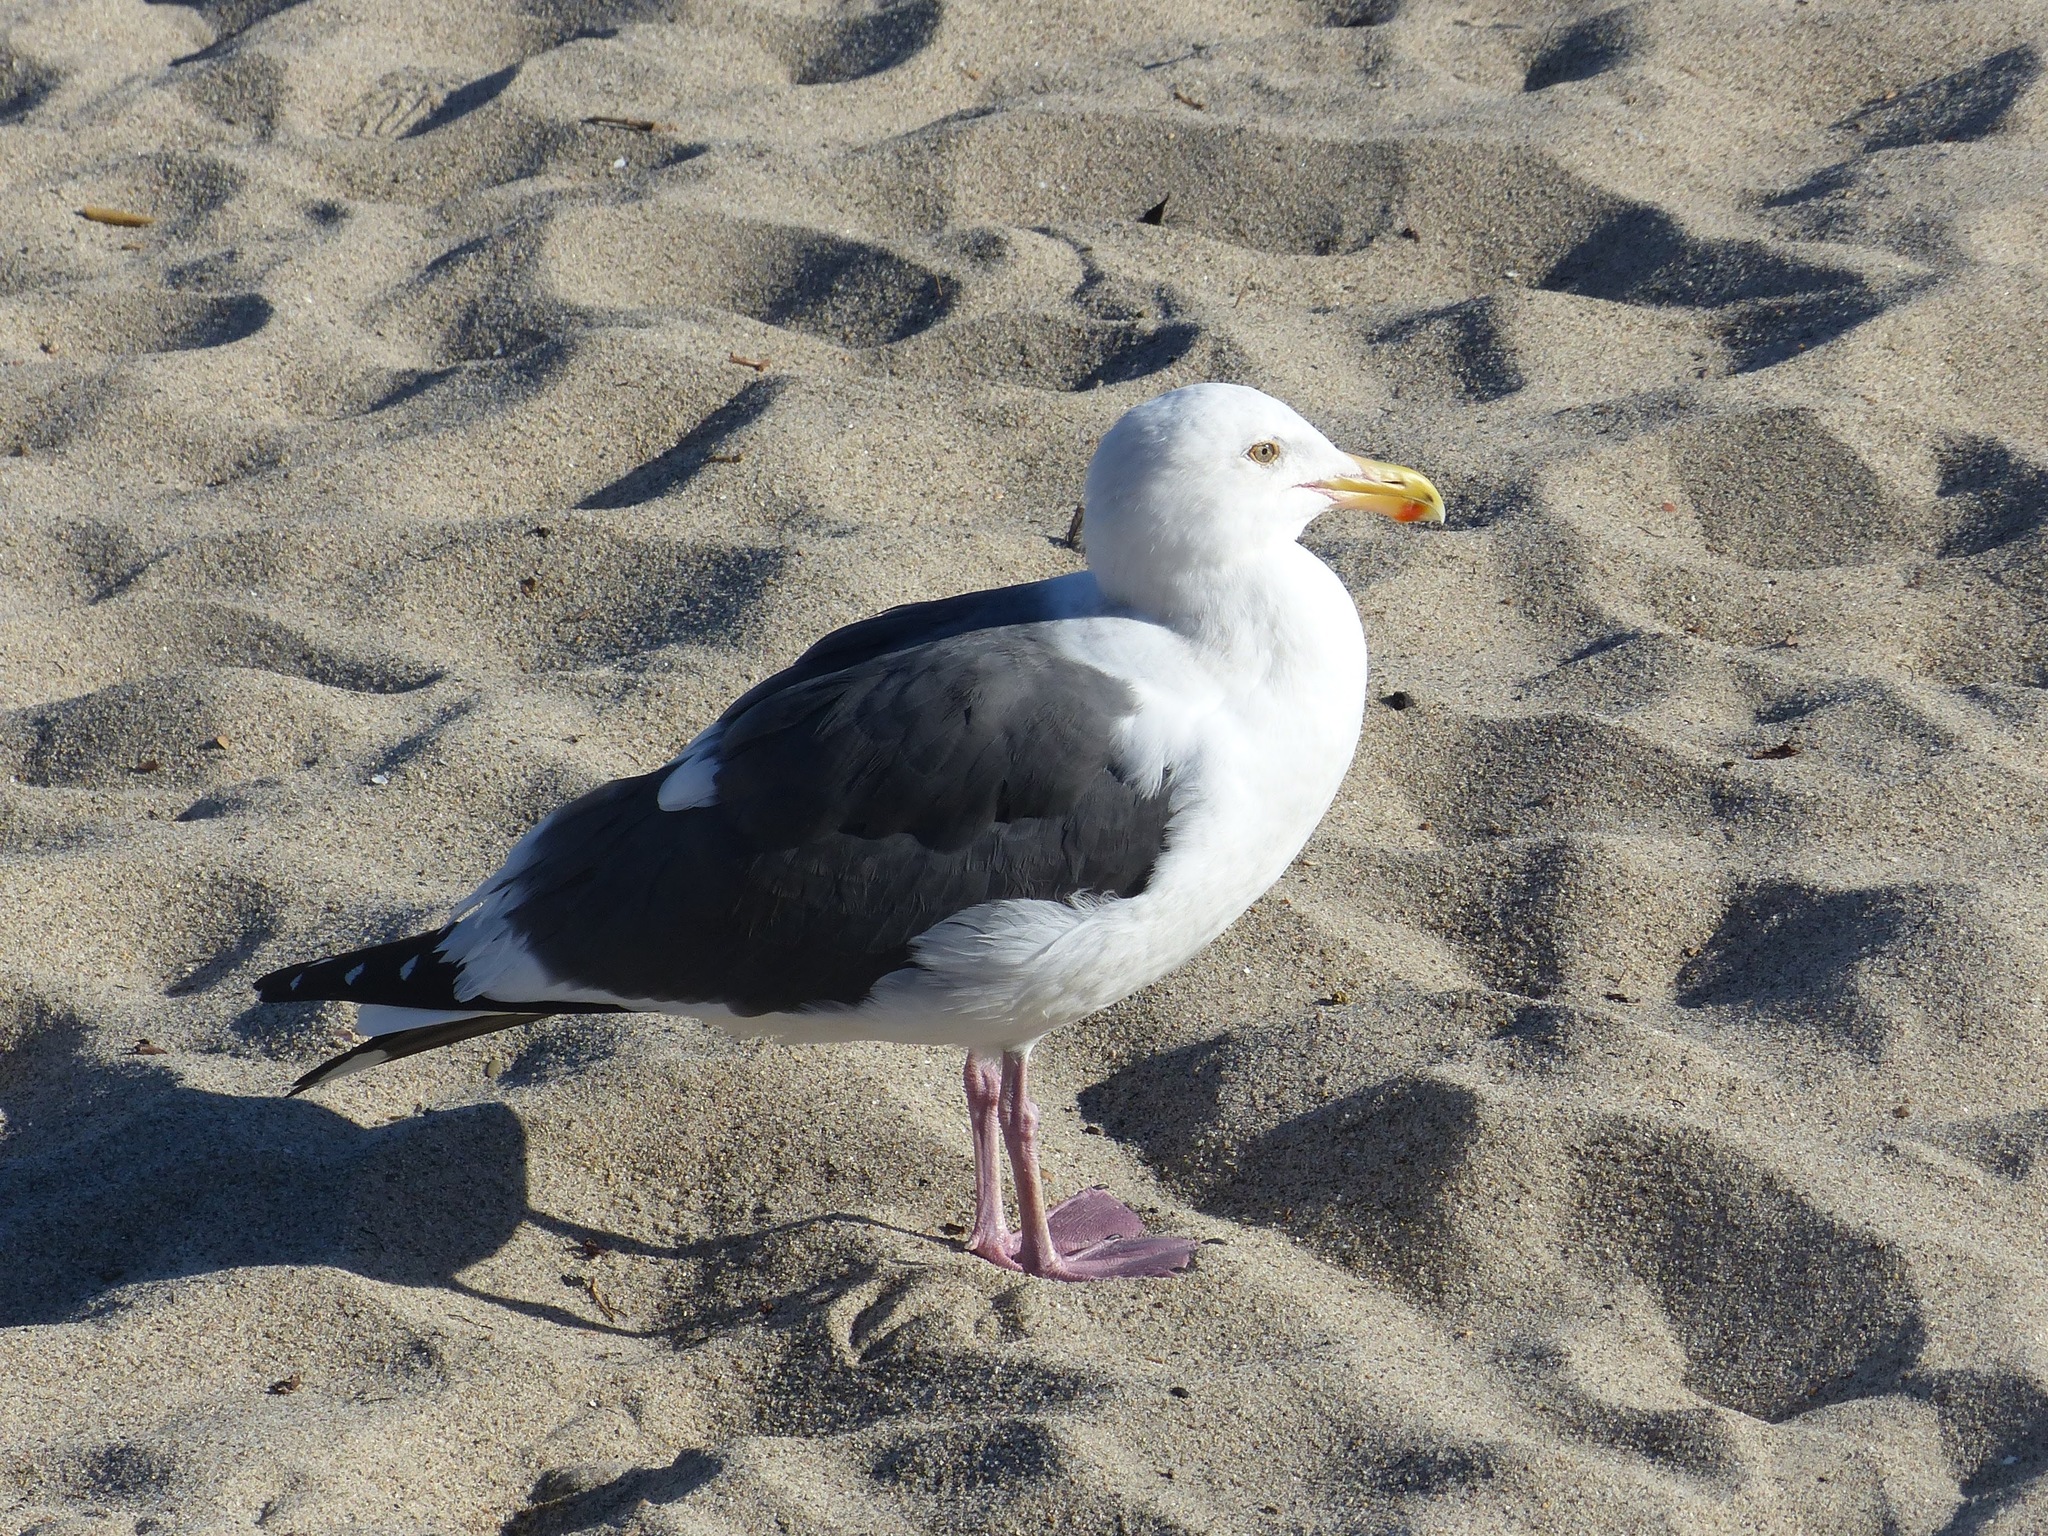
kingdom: Animalia
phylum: Chordata
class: Aves
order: Charadriiformes
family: Laridae
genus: Larus
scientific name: Larus occidentalis
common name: Western gull
